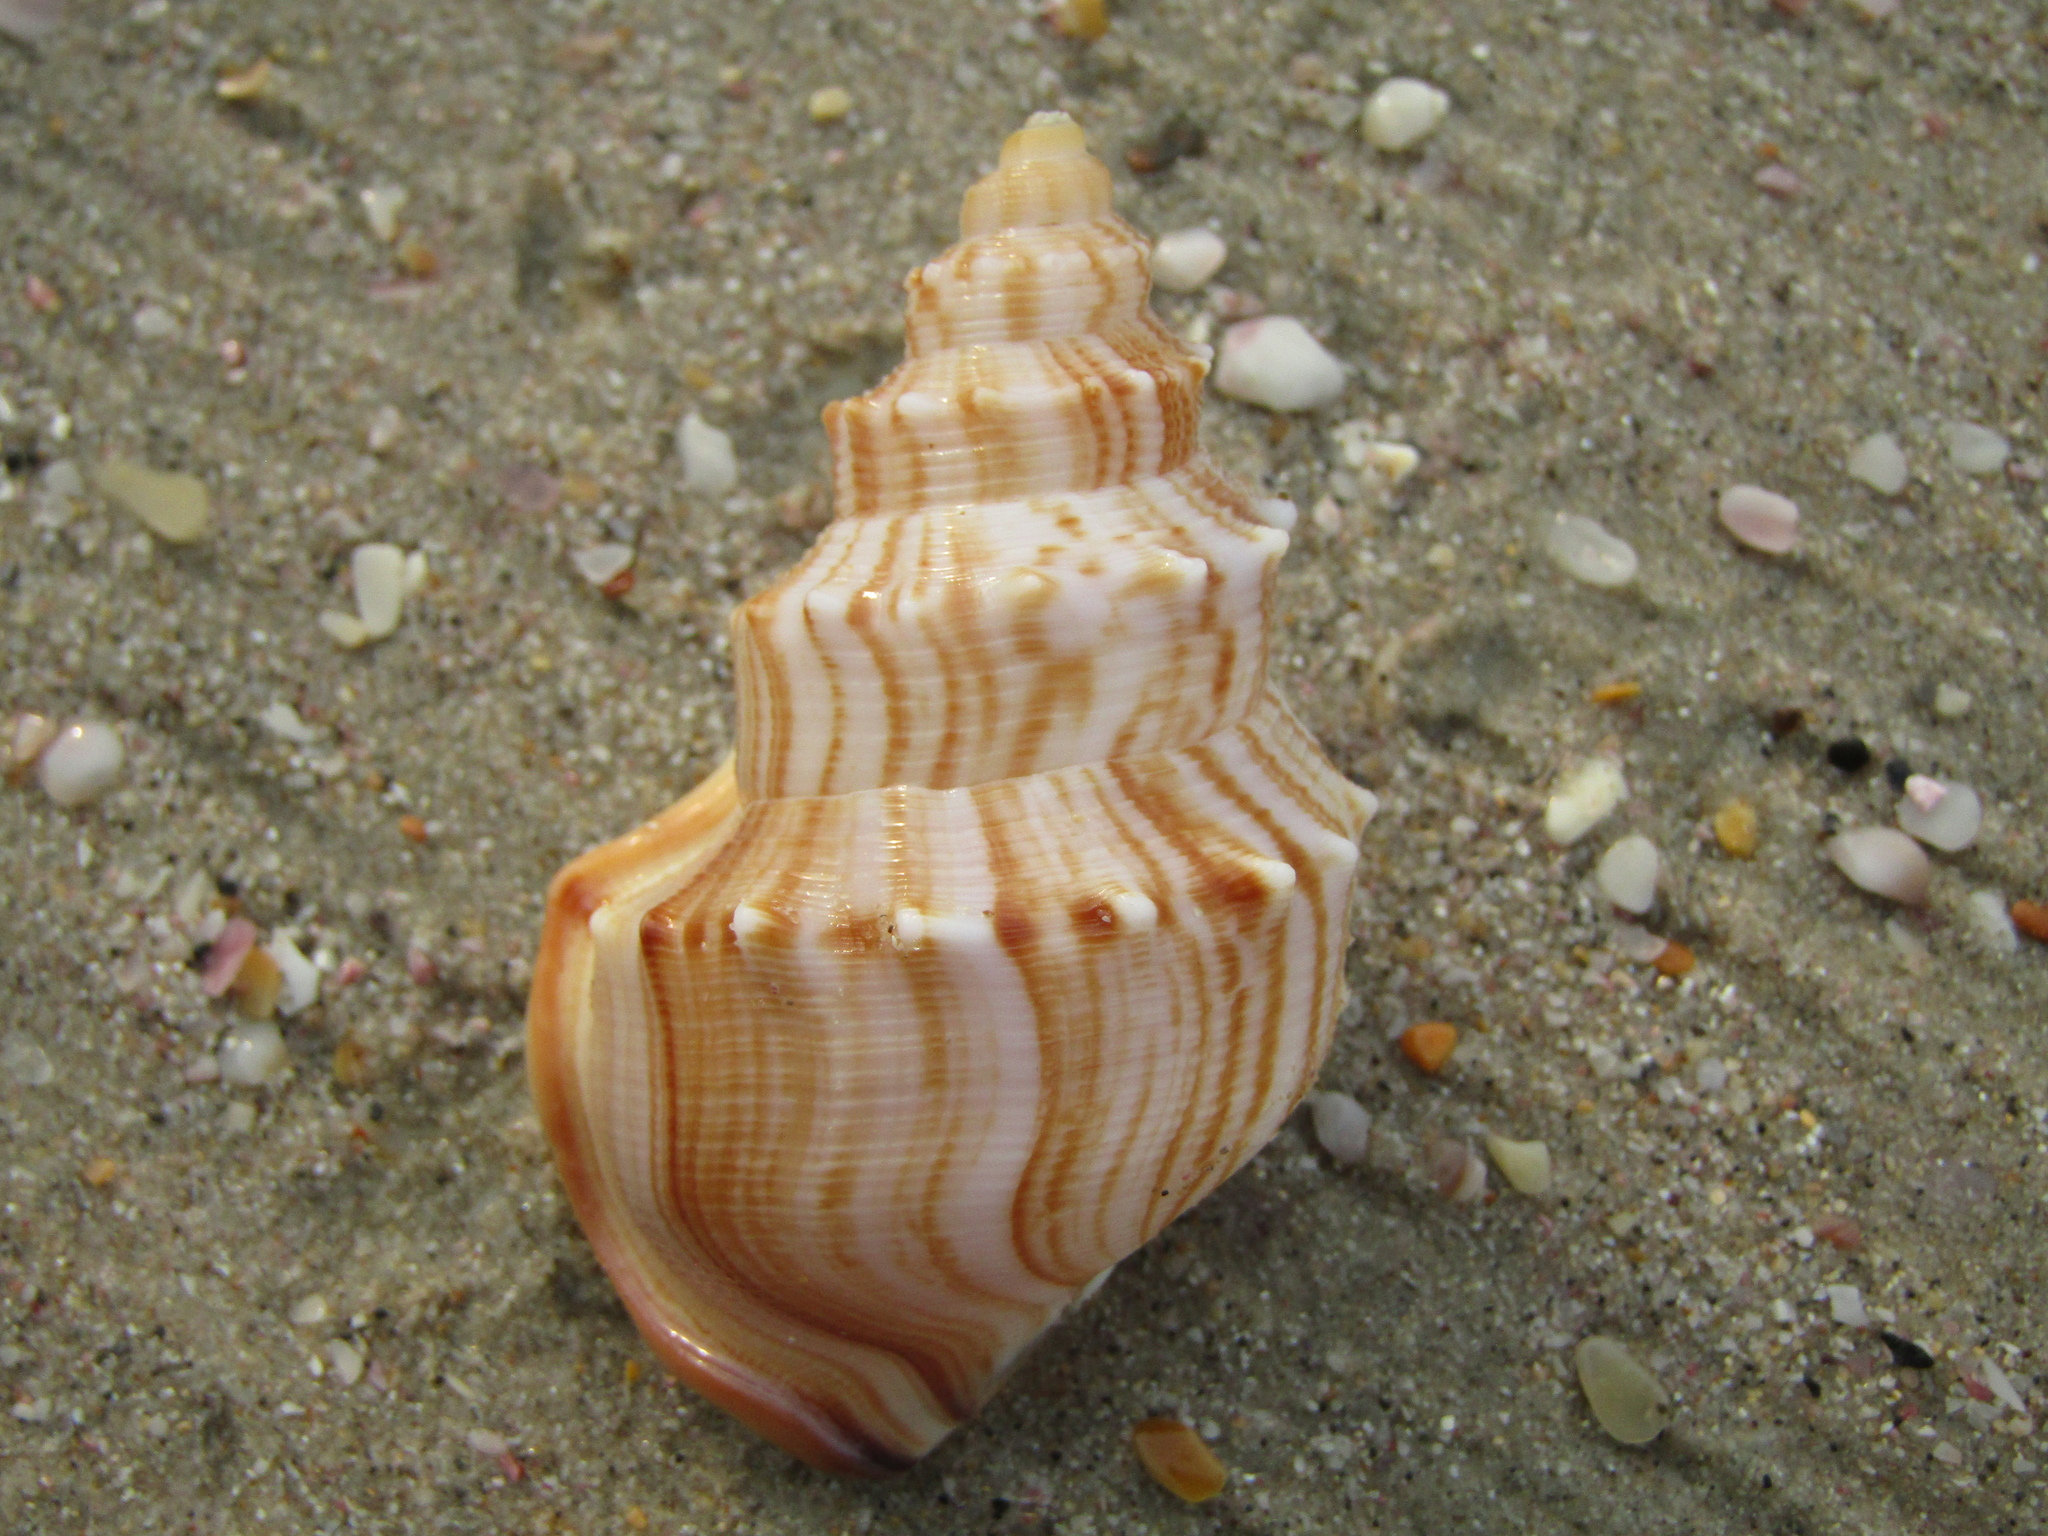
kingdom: Animalia
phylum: Mollusca
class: Gastropoda
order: Littorinimorpha
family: Struthiolariidae
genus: Struthiolaria
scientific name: Struthiolaria papulosa
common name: Large ostrich foot
